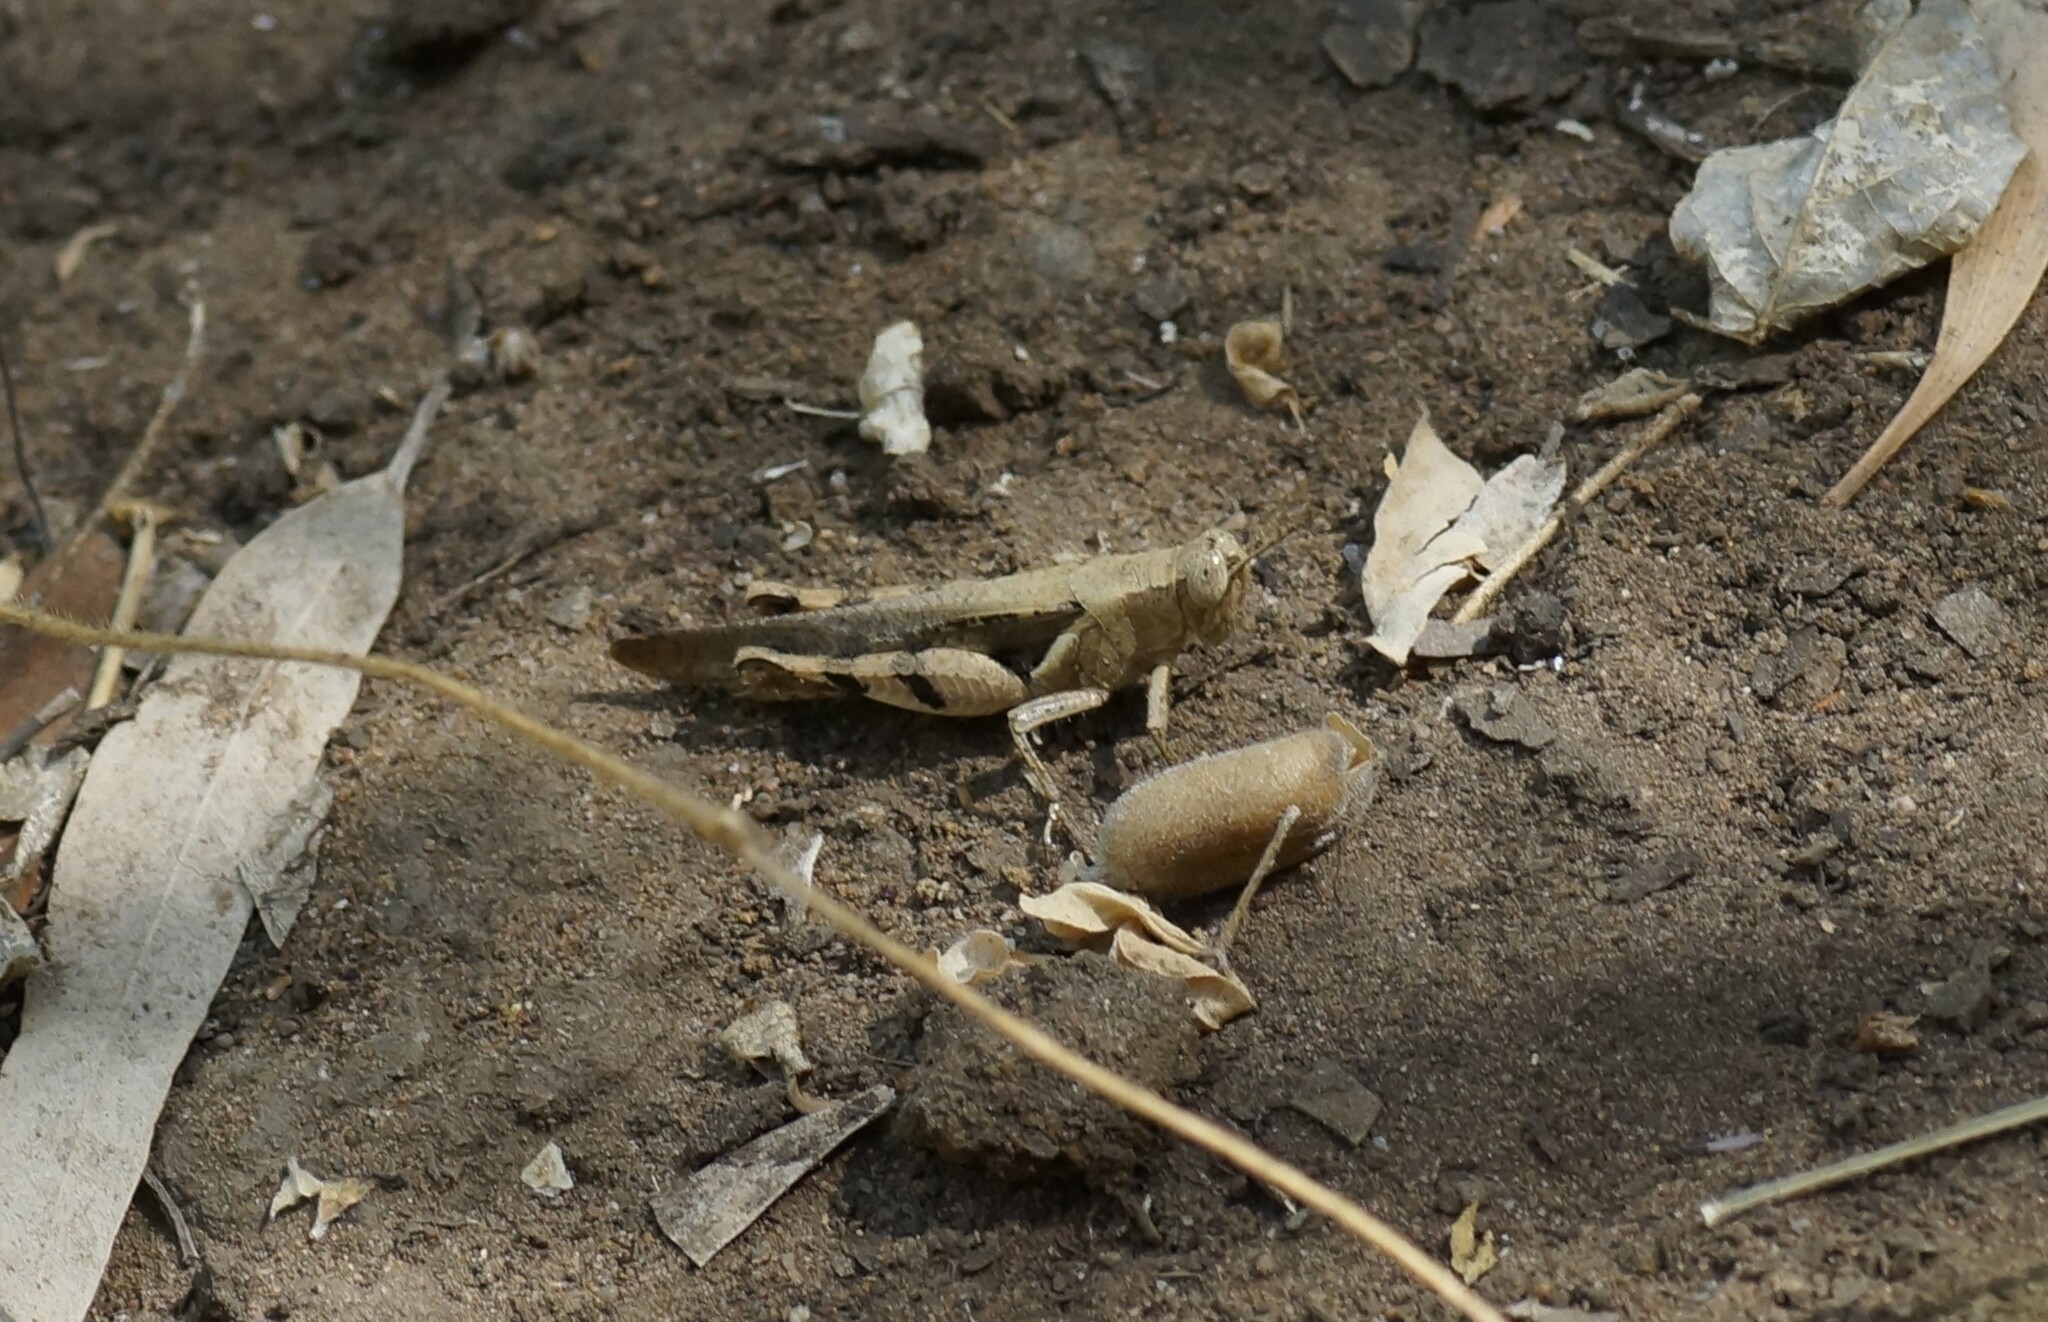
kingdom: Animalia
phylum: Arthropoda
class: Insecta
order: Orthoptera
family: Acrididae
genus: Stenocatantops
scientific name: Stenocatantops angustifrons
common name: Common tropical sharptail
